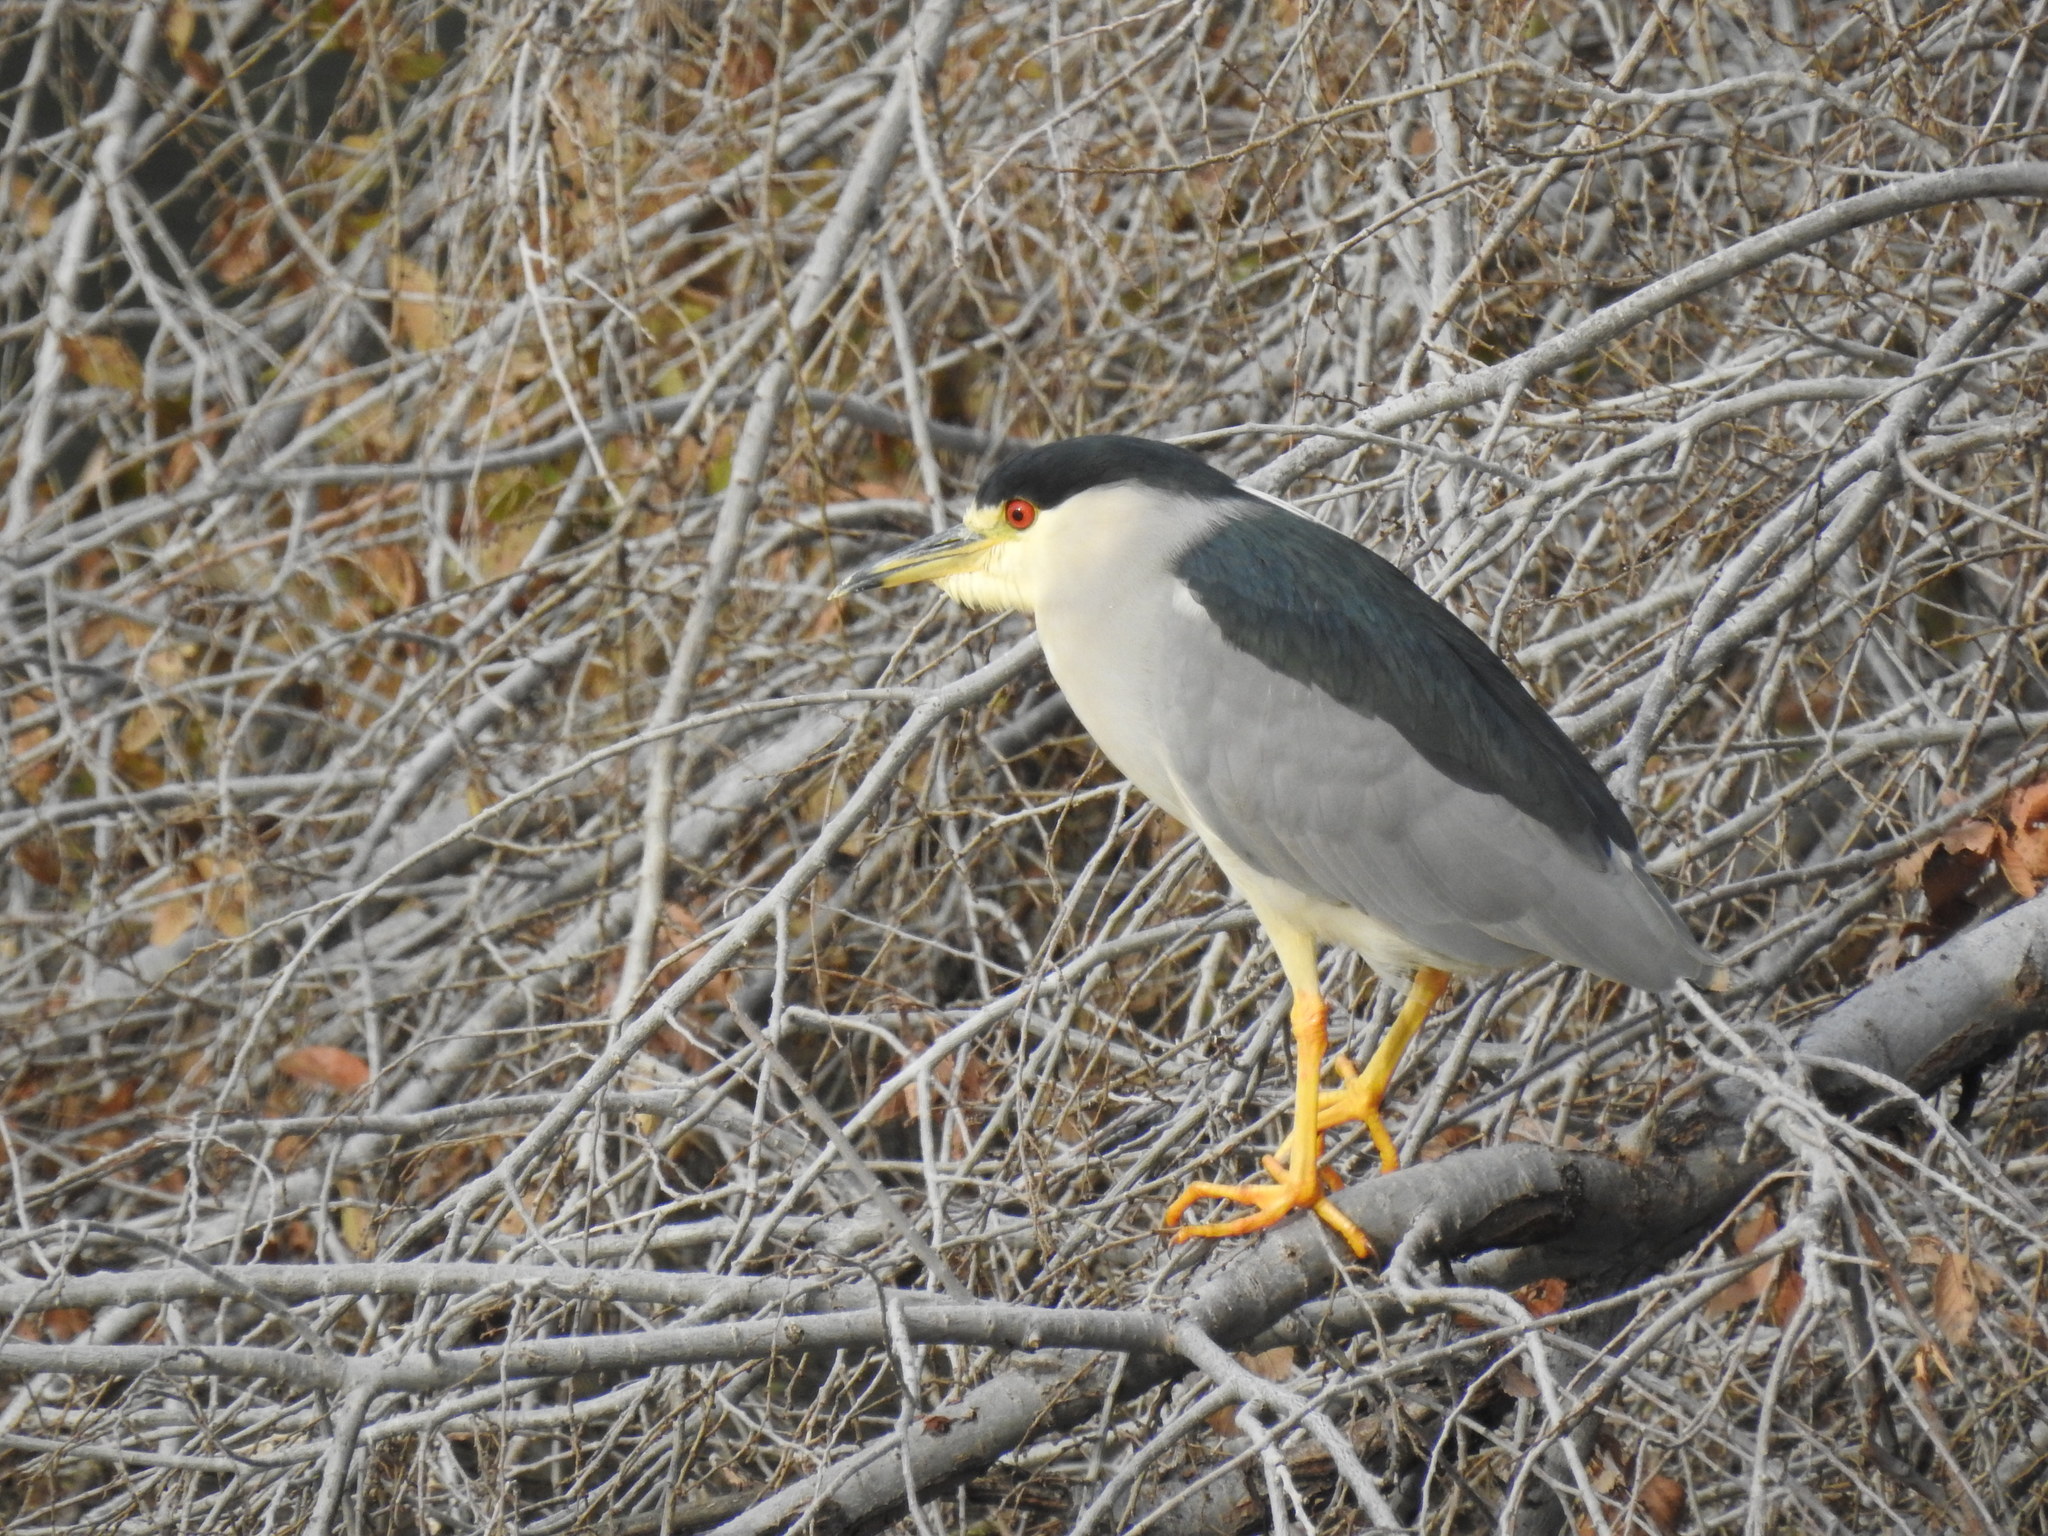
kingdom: Animalia
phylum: Chordata
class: Aves
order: Pelecaniformes
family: Ardeidae
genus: Nycticorax
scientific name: Nycticorax nycticorax
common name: Black-crowned night heron
